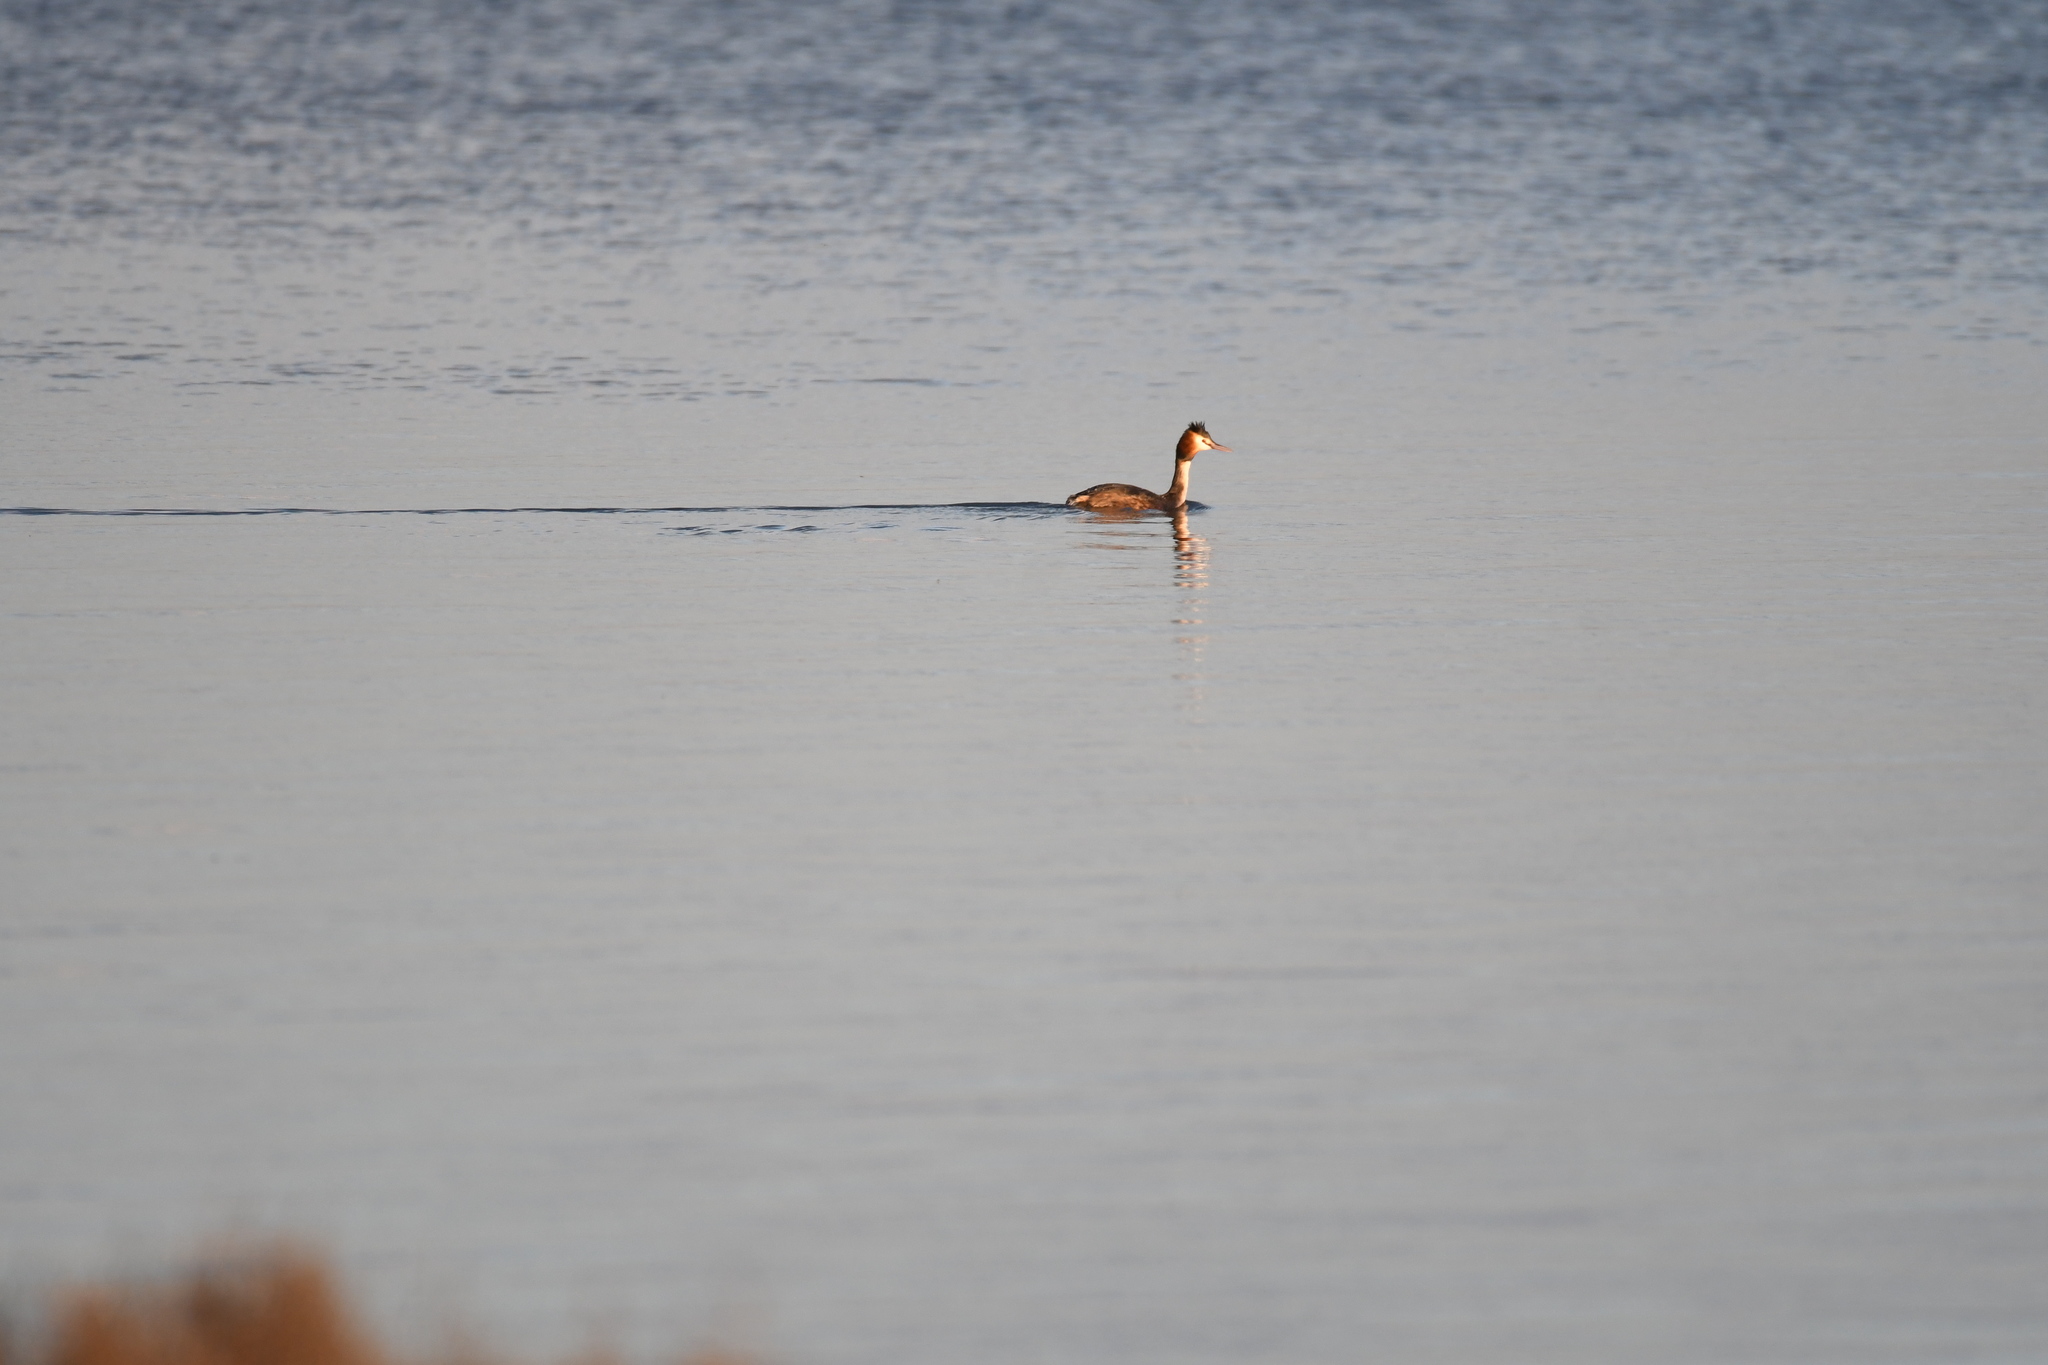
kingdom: Animalia
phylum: Chordata
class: Aves
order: Podicipediformes
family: Podicipedidae
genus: Podiceps
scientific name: Podiceps cristatus
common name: Great crested grebe
